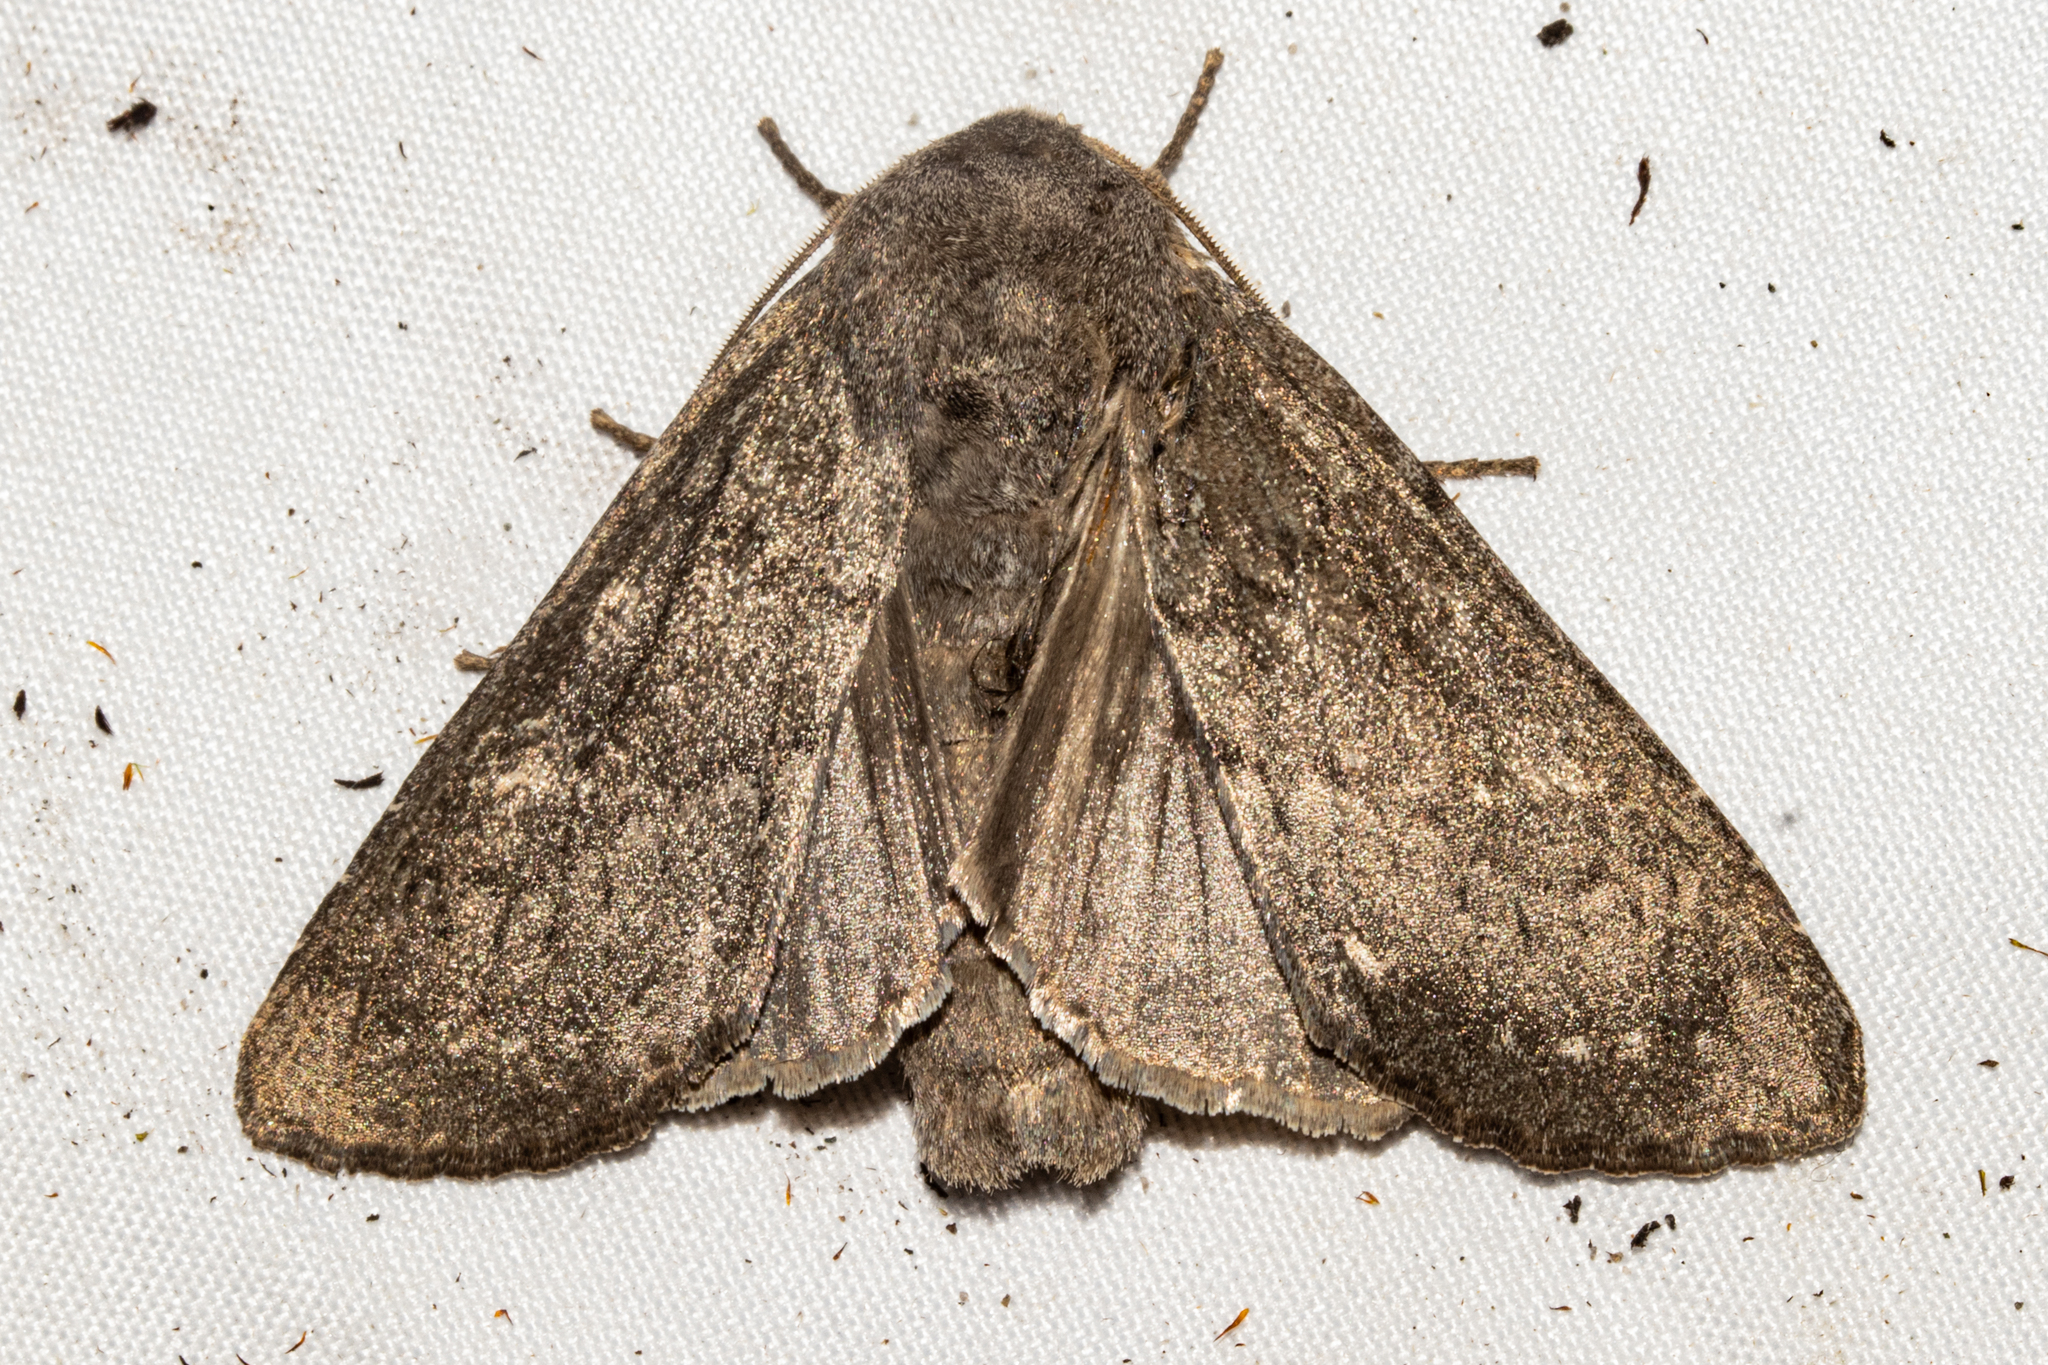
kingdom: Animalia
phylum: Arthropoda
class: Insecta
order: Lepidoptera
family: Noctuidae
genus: Ichneutica
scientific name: Ichneutica nullifera
